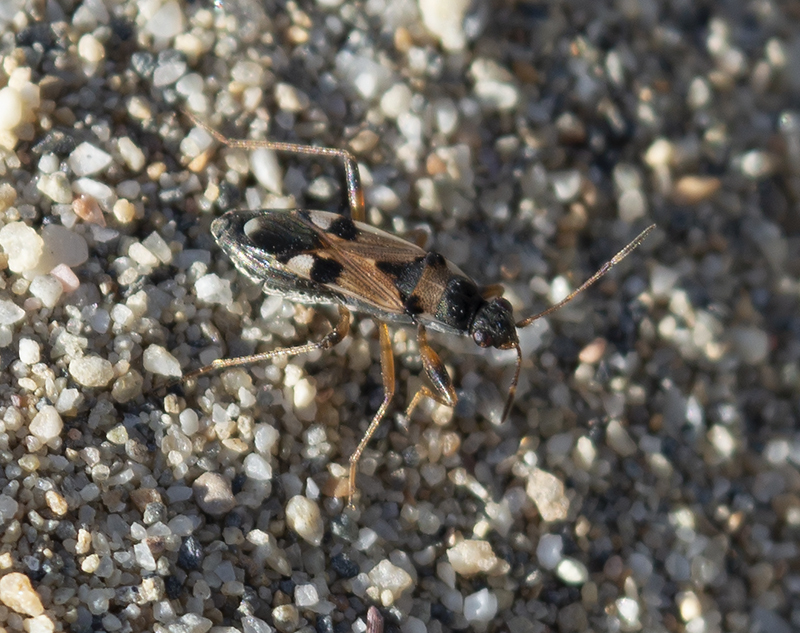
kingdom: Animalia
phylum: Arthropoda
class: Insecta
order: Hemiptera
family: Rhyparochromidae
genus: Beosus
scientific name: Beosus quadripunctatus
